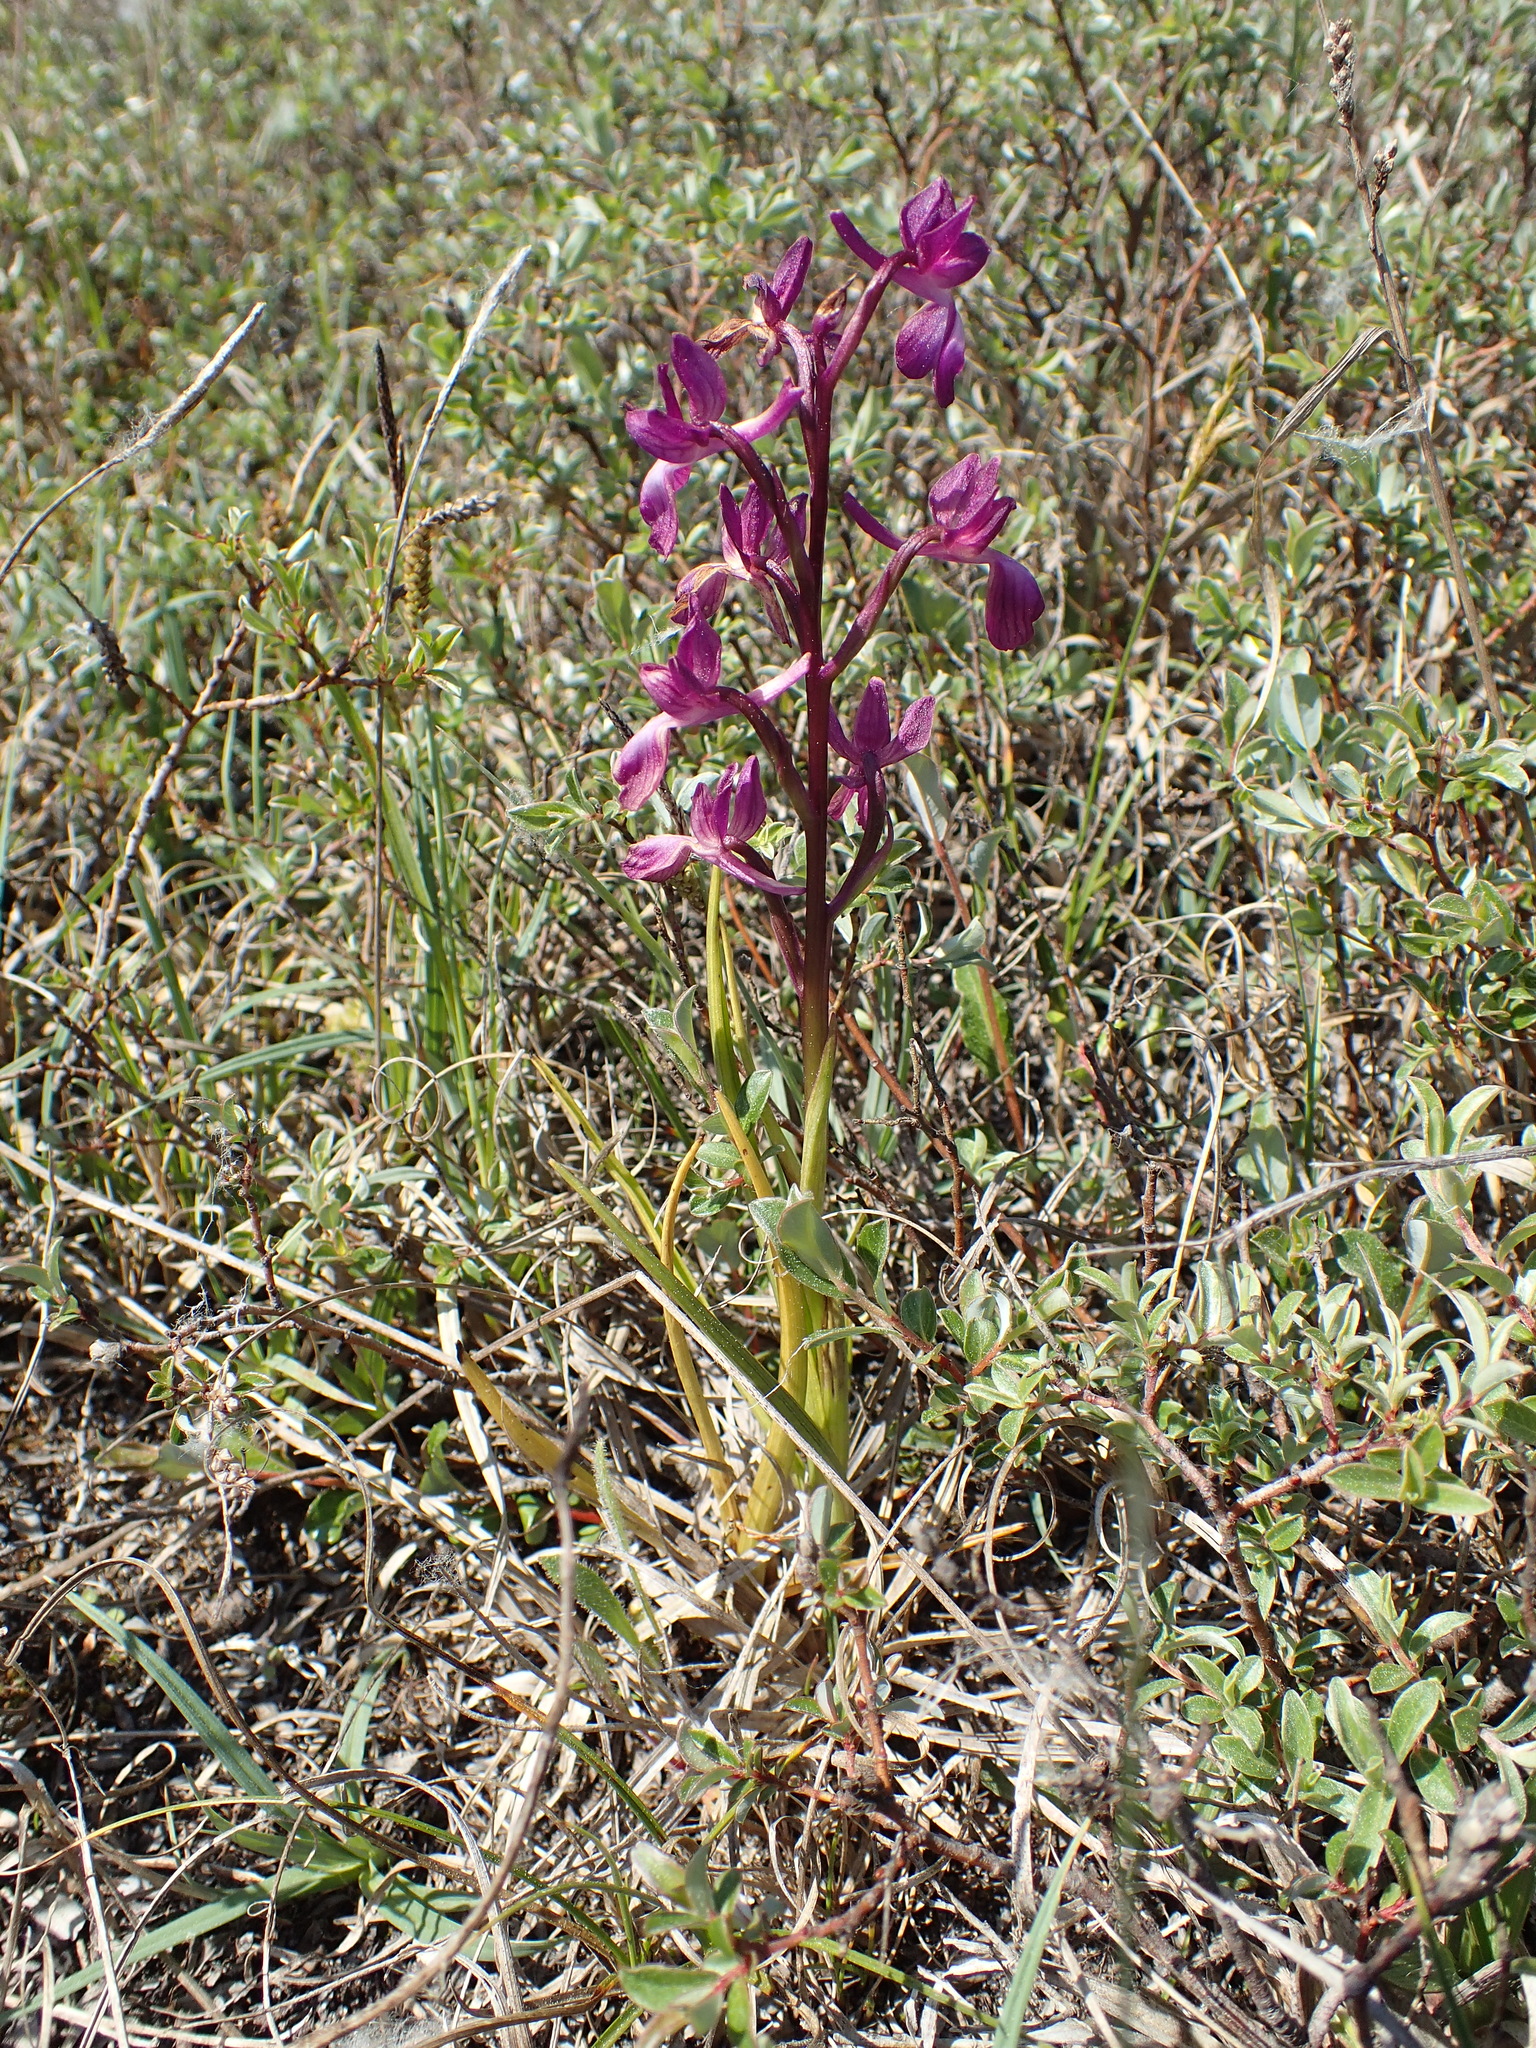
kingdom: Plantae
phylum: Tracheophyta
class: Liliopsida
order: Asparagales
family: Orchidaceae
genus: Anacamptis
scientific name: Anacamptis laxiflora
